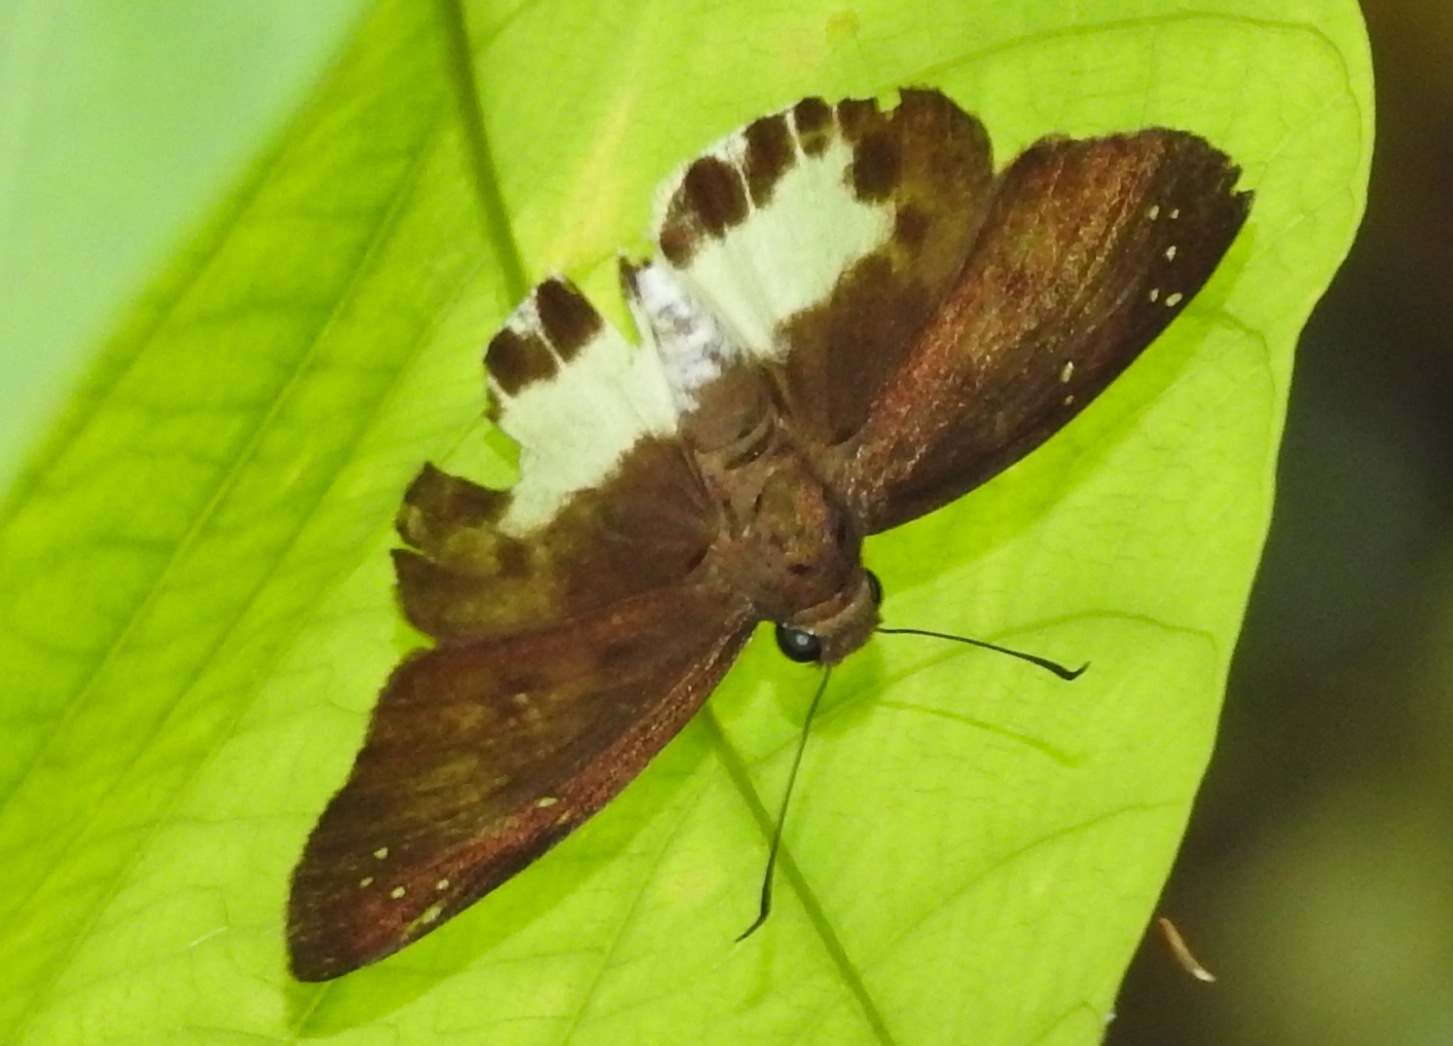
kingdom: Animalia
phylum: Arthropoda
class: Insecta
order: Lepidoptera
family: Hesperiidae
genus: Tagiades
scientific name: Tagiades litigiosa
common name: Water snow flat
